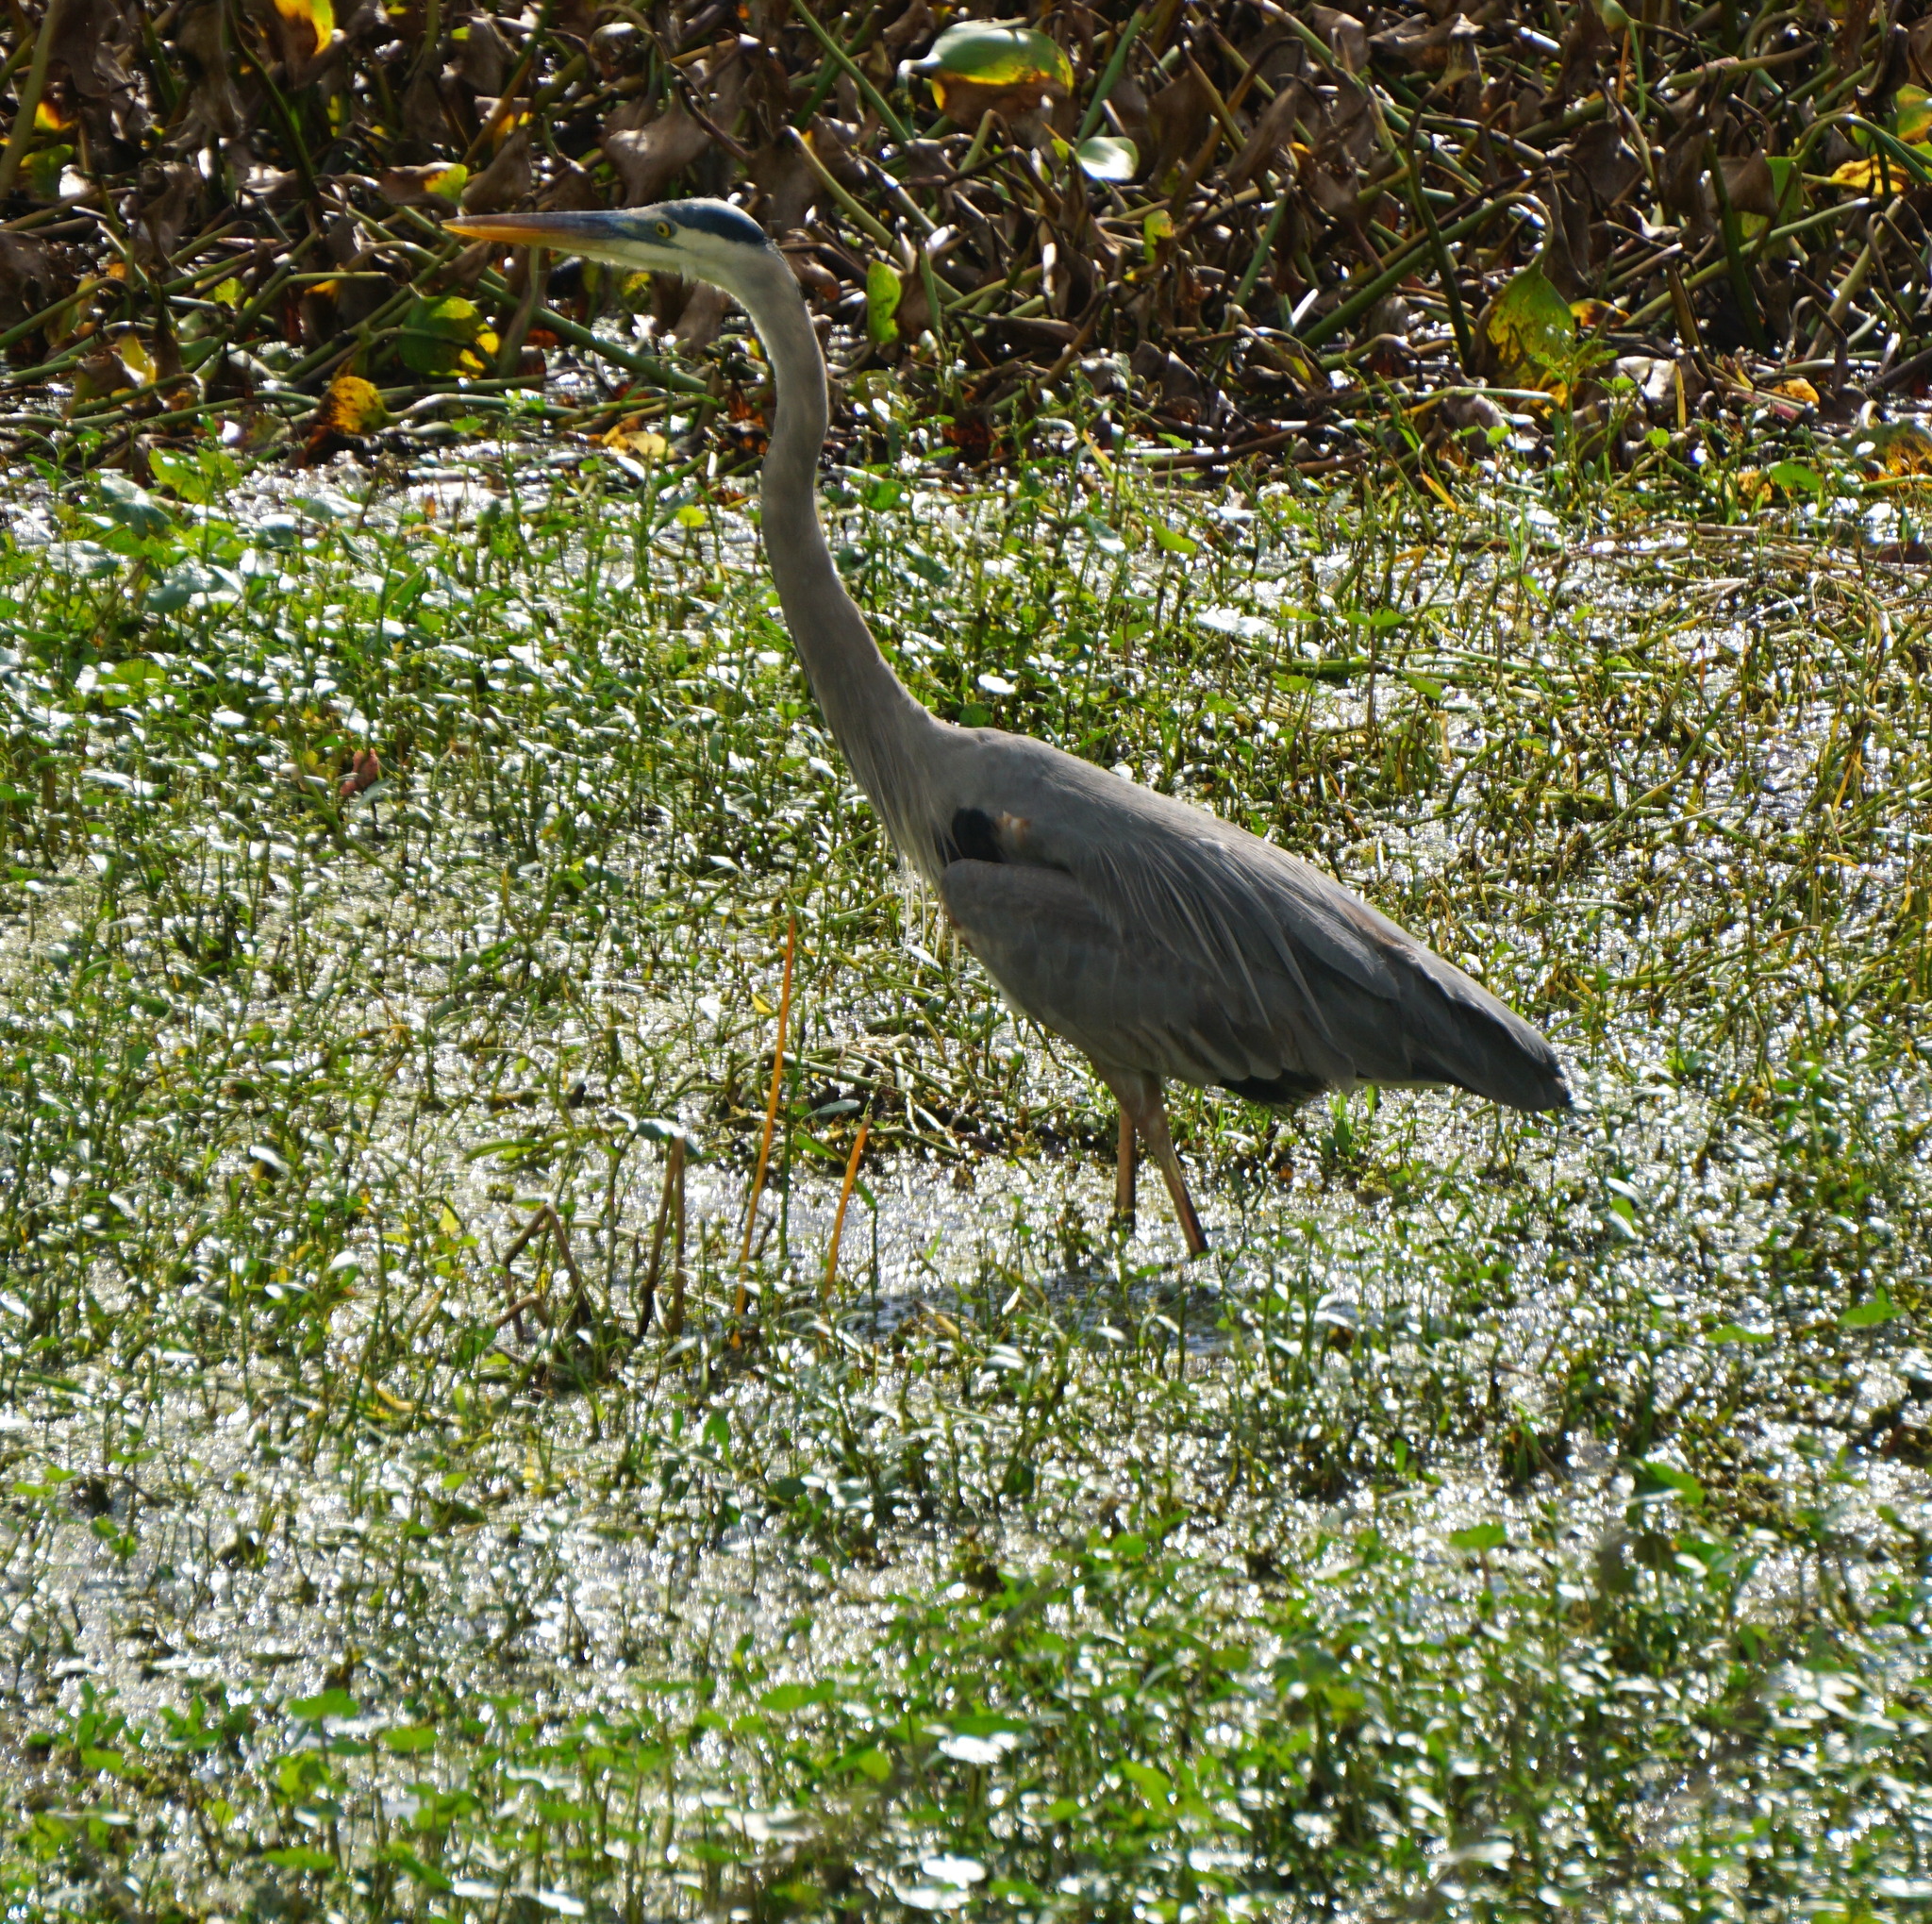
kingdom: Animalia
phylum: Chordata
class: Aves
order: Pelecaniformes
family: Ardeidae
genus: Ardea
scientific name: Ardea herodias
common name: Great blue heron
